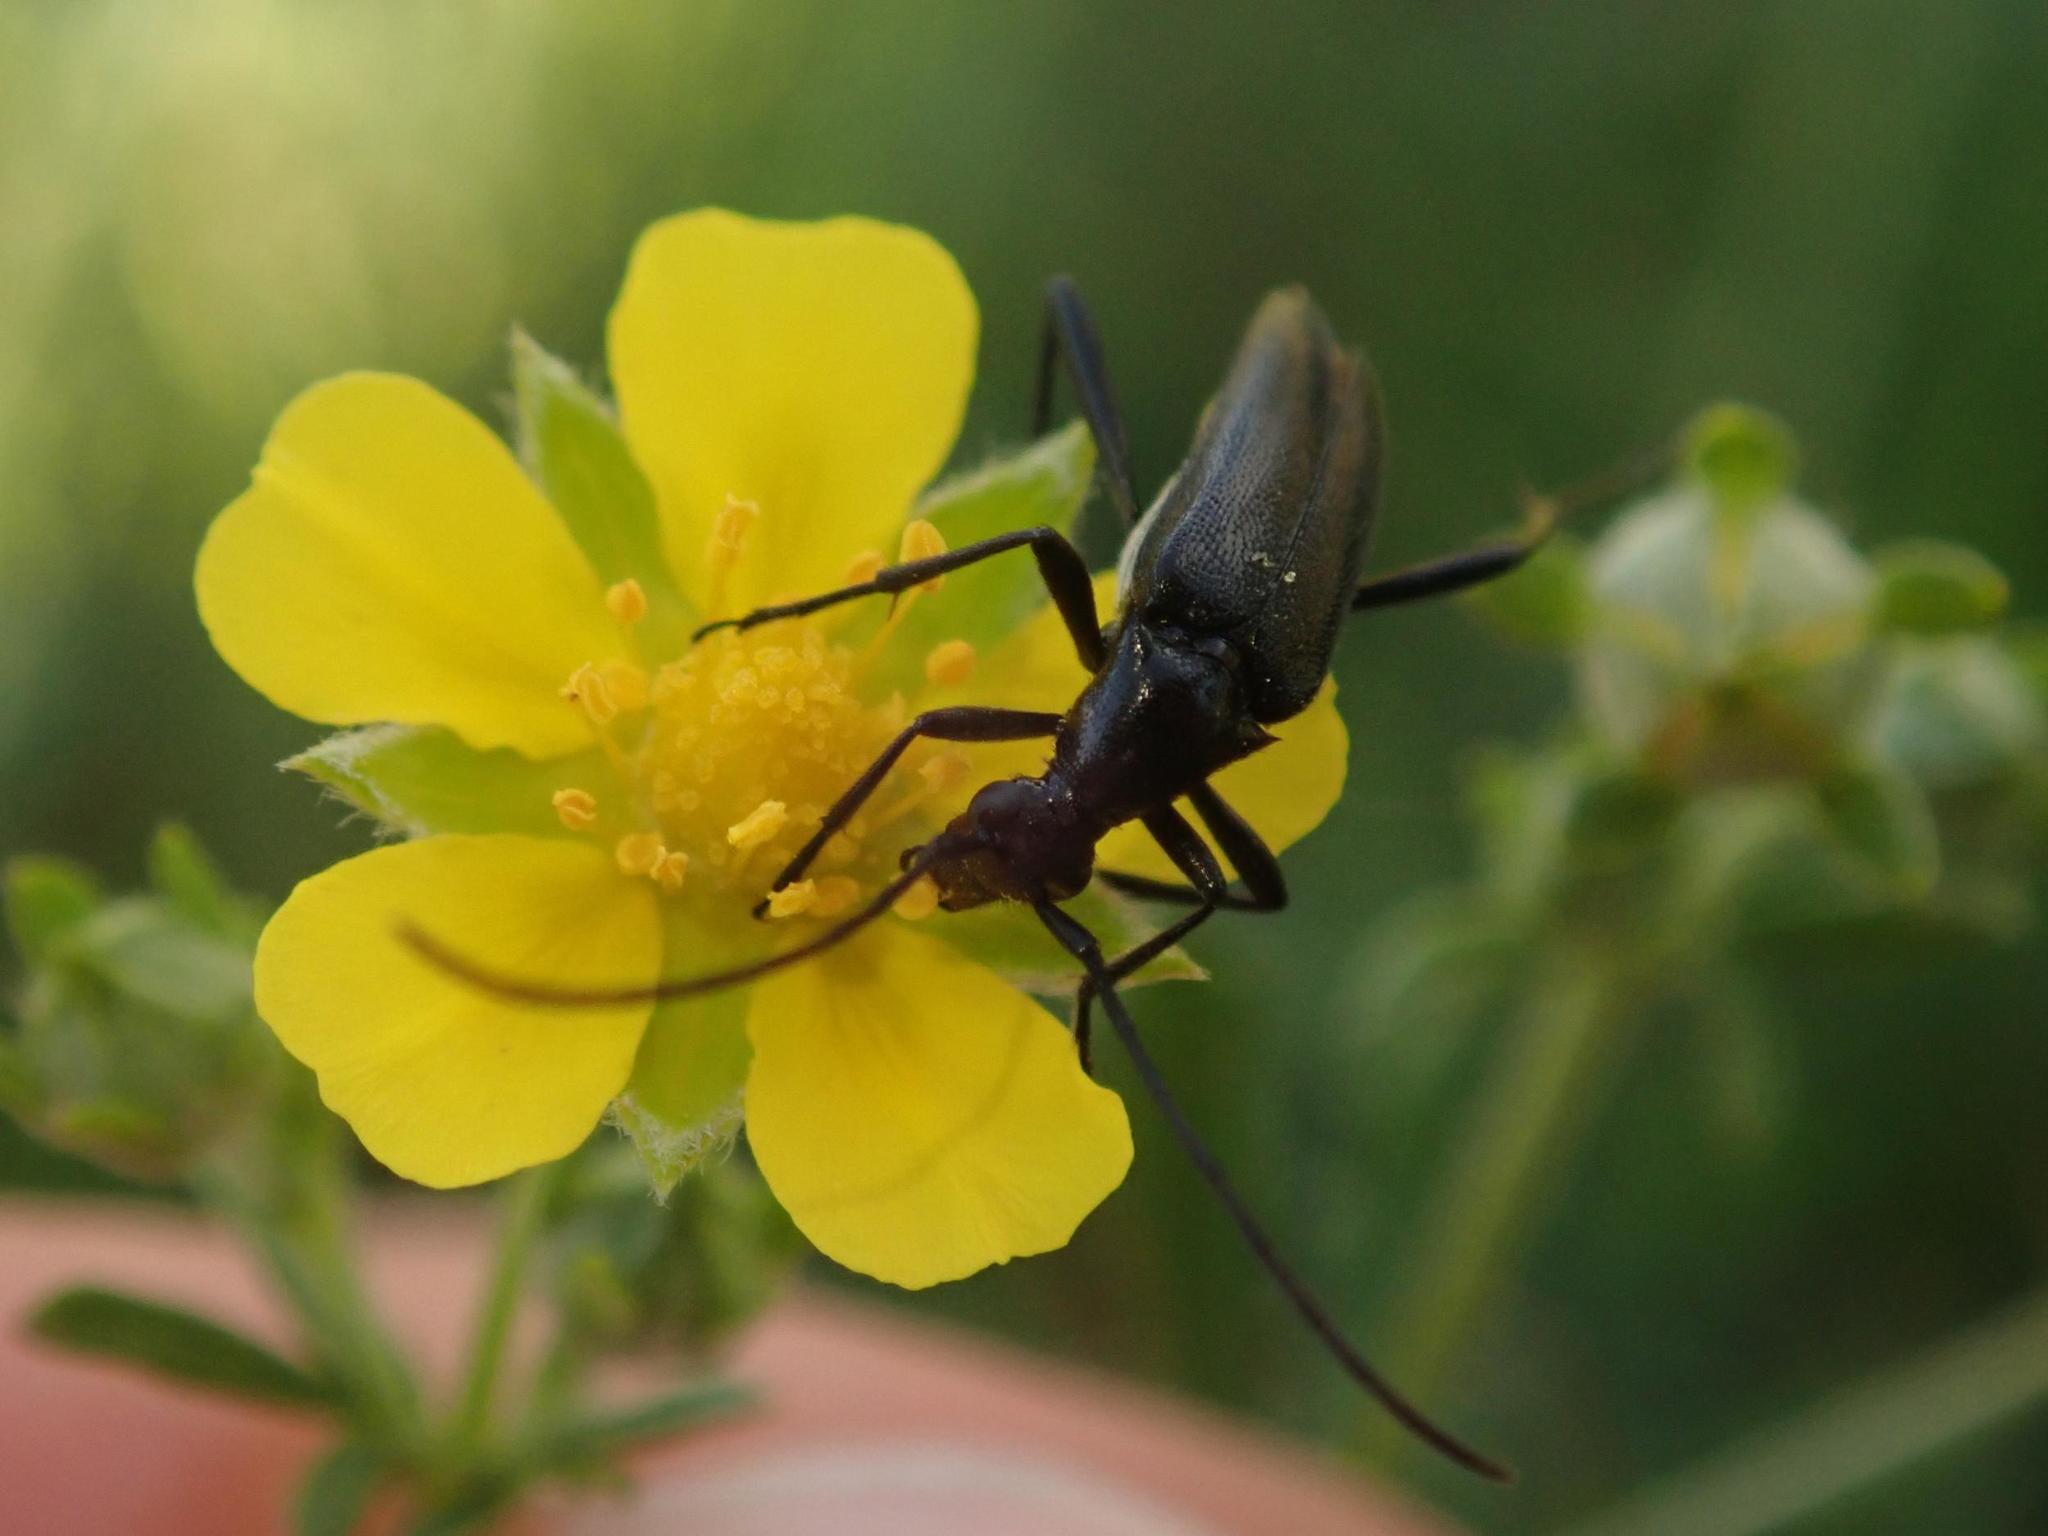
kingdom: Animalia
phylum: Arthropoda
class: Insecta
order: Coleoptera
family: Cerambycidae
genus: Stenurella
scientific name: Stenurella nigra
